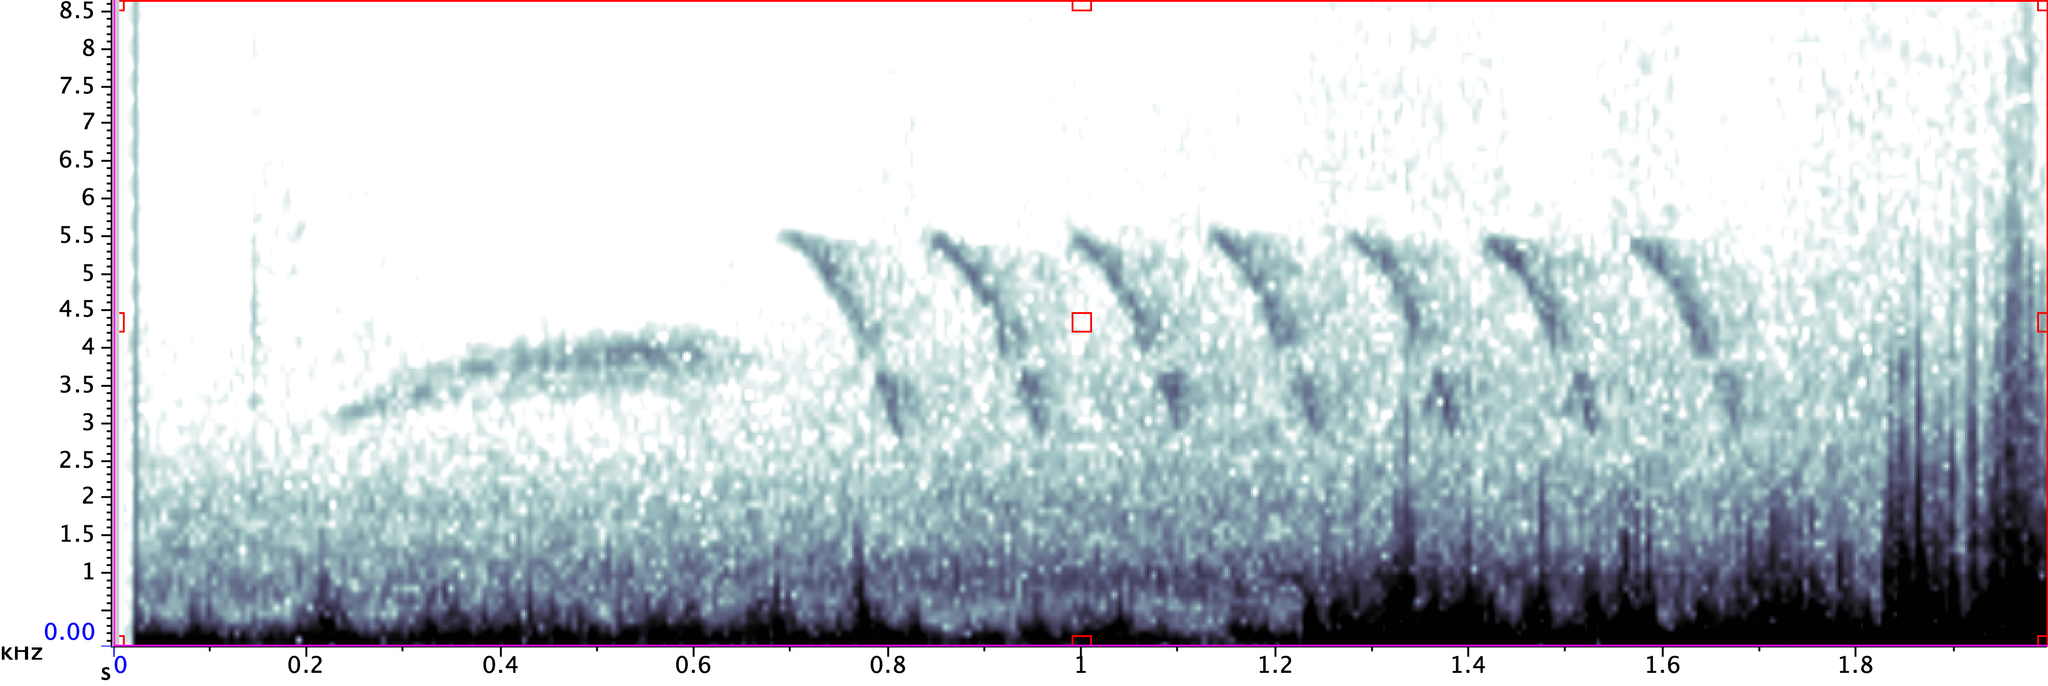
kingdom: Animalia
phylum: Chordata
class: Aves
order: Passeriformes
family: Troglodytidae
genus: Thryomanes
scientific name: Thryomanes bewickii
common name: Bewick's wren
